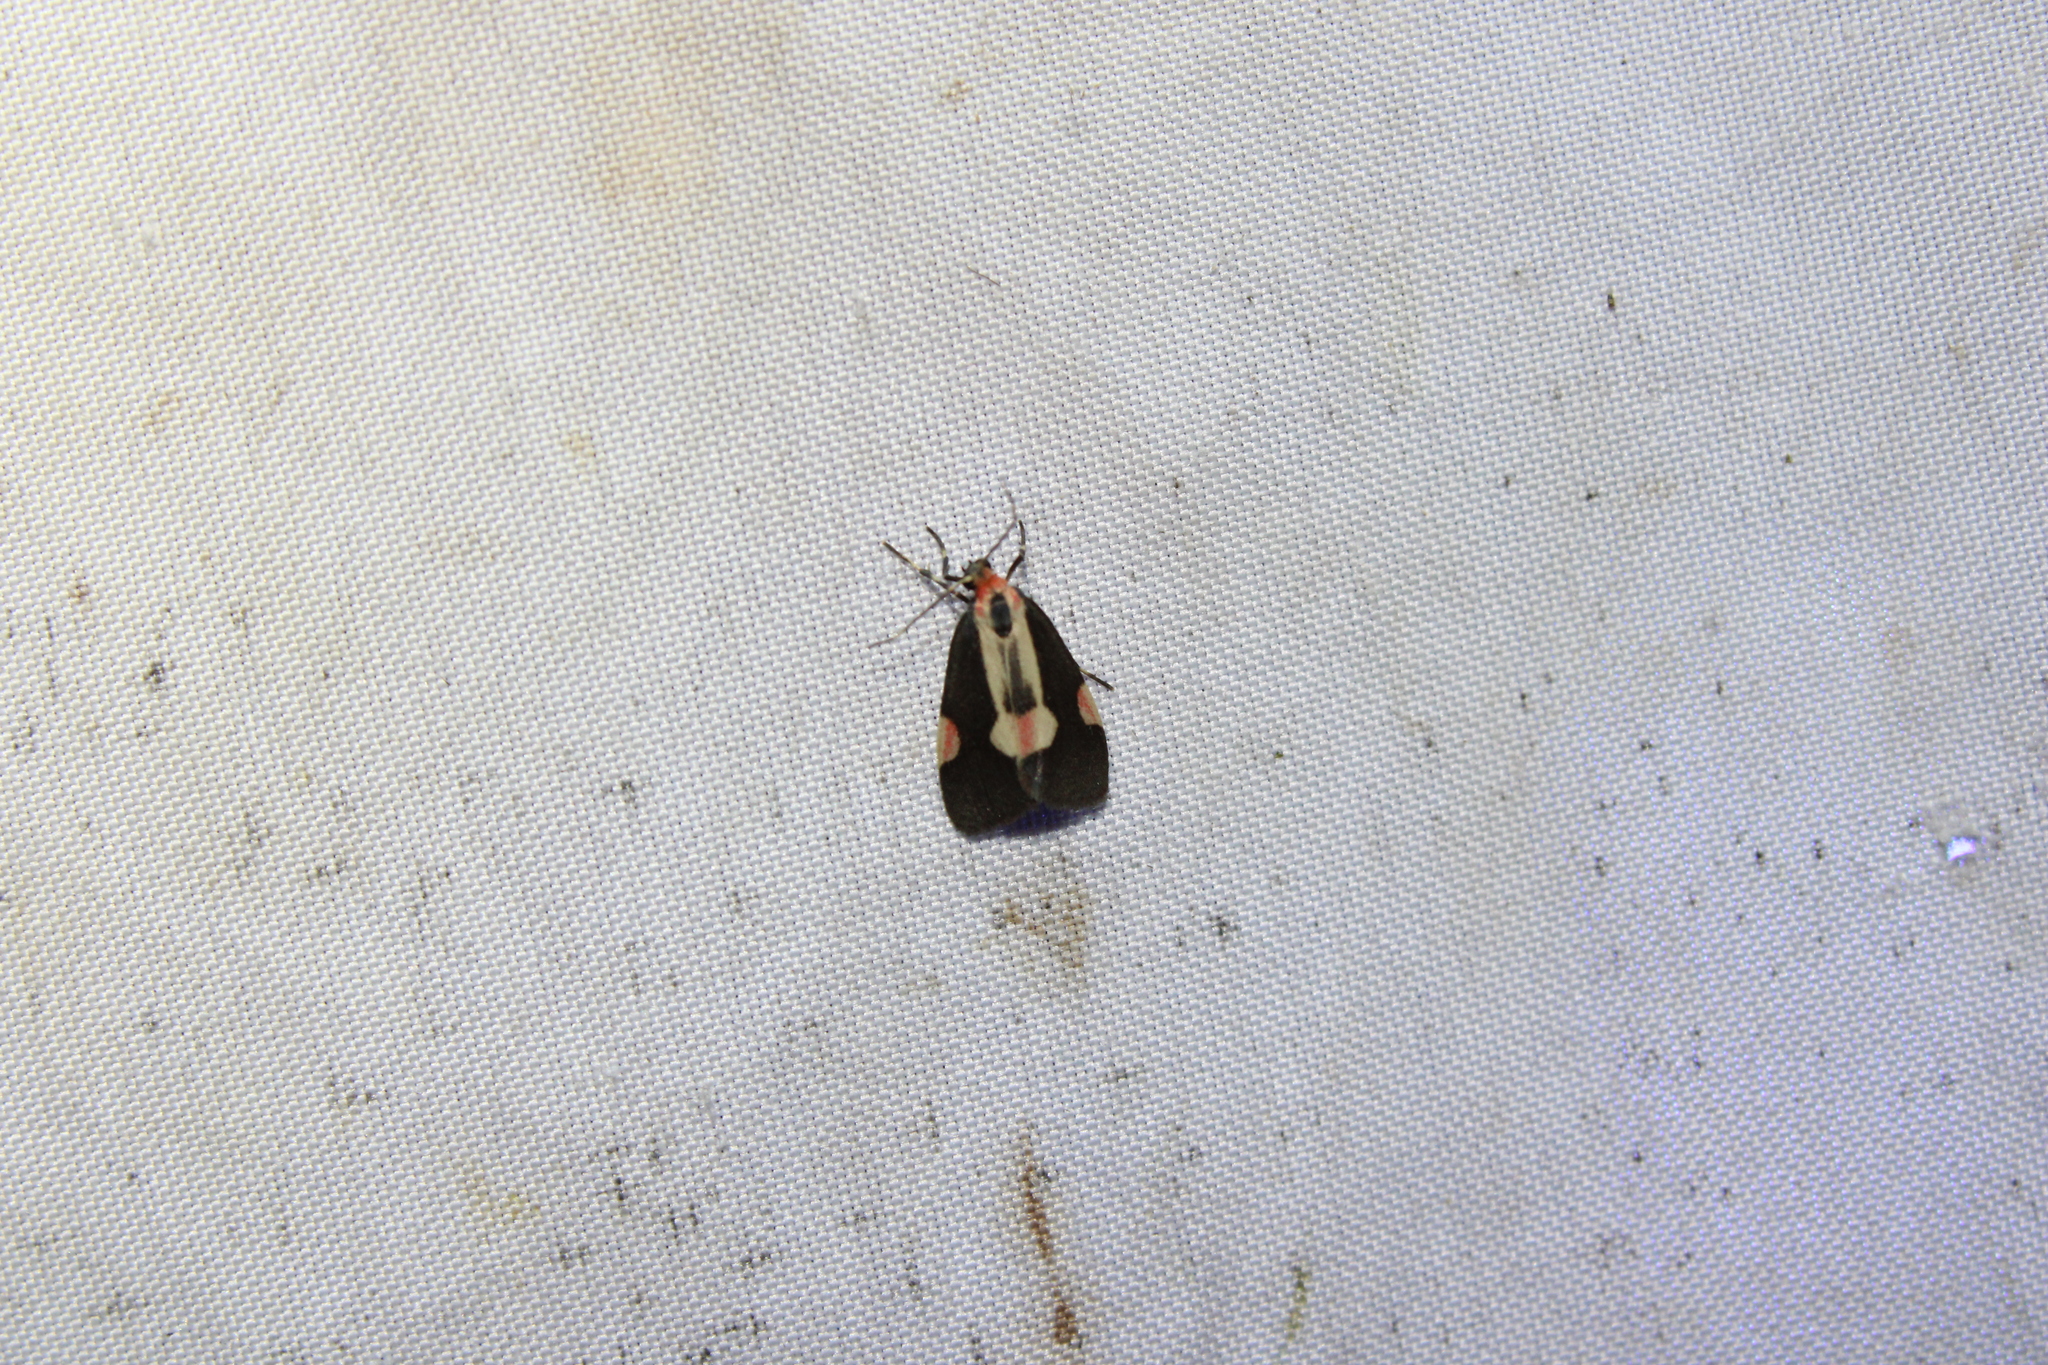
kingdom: Animalia
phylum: Arthropoda
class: Insecta
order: Lepidoptera
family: Erebidae
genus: Cisthene
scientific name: Cisthene packardii
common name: Packard's lichen moth
